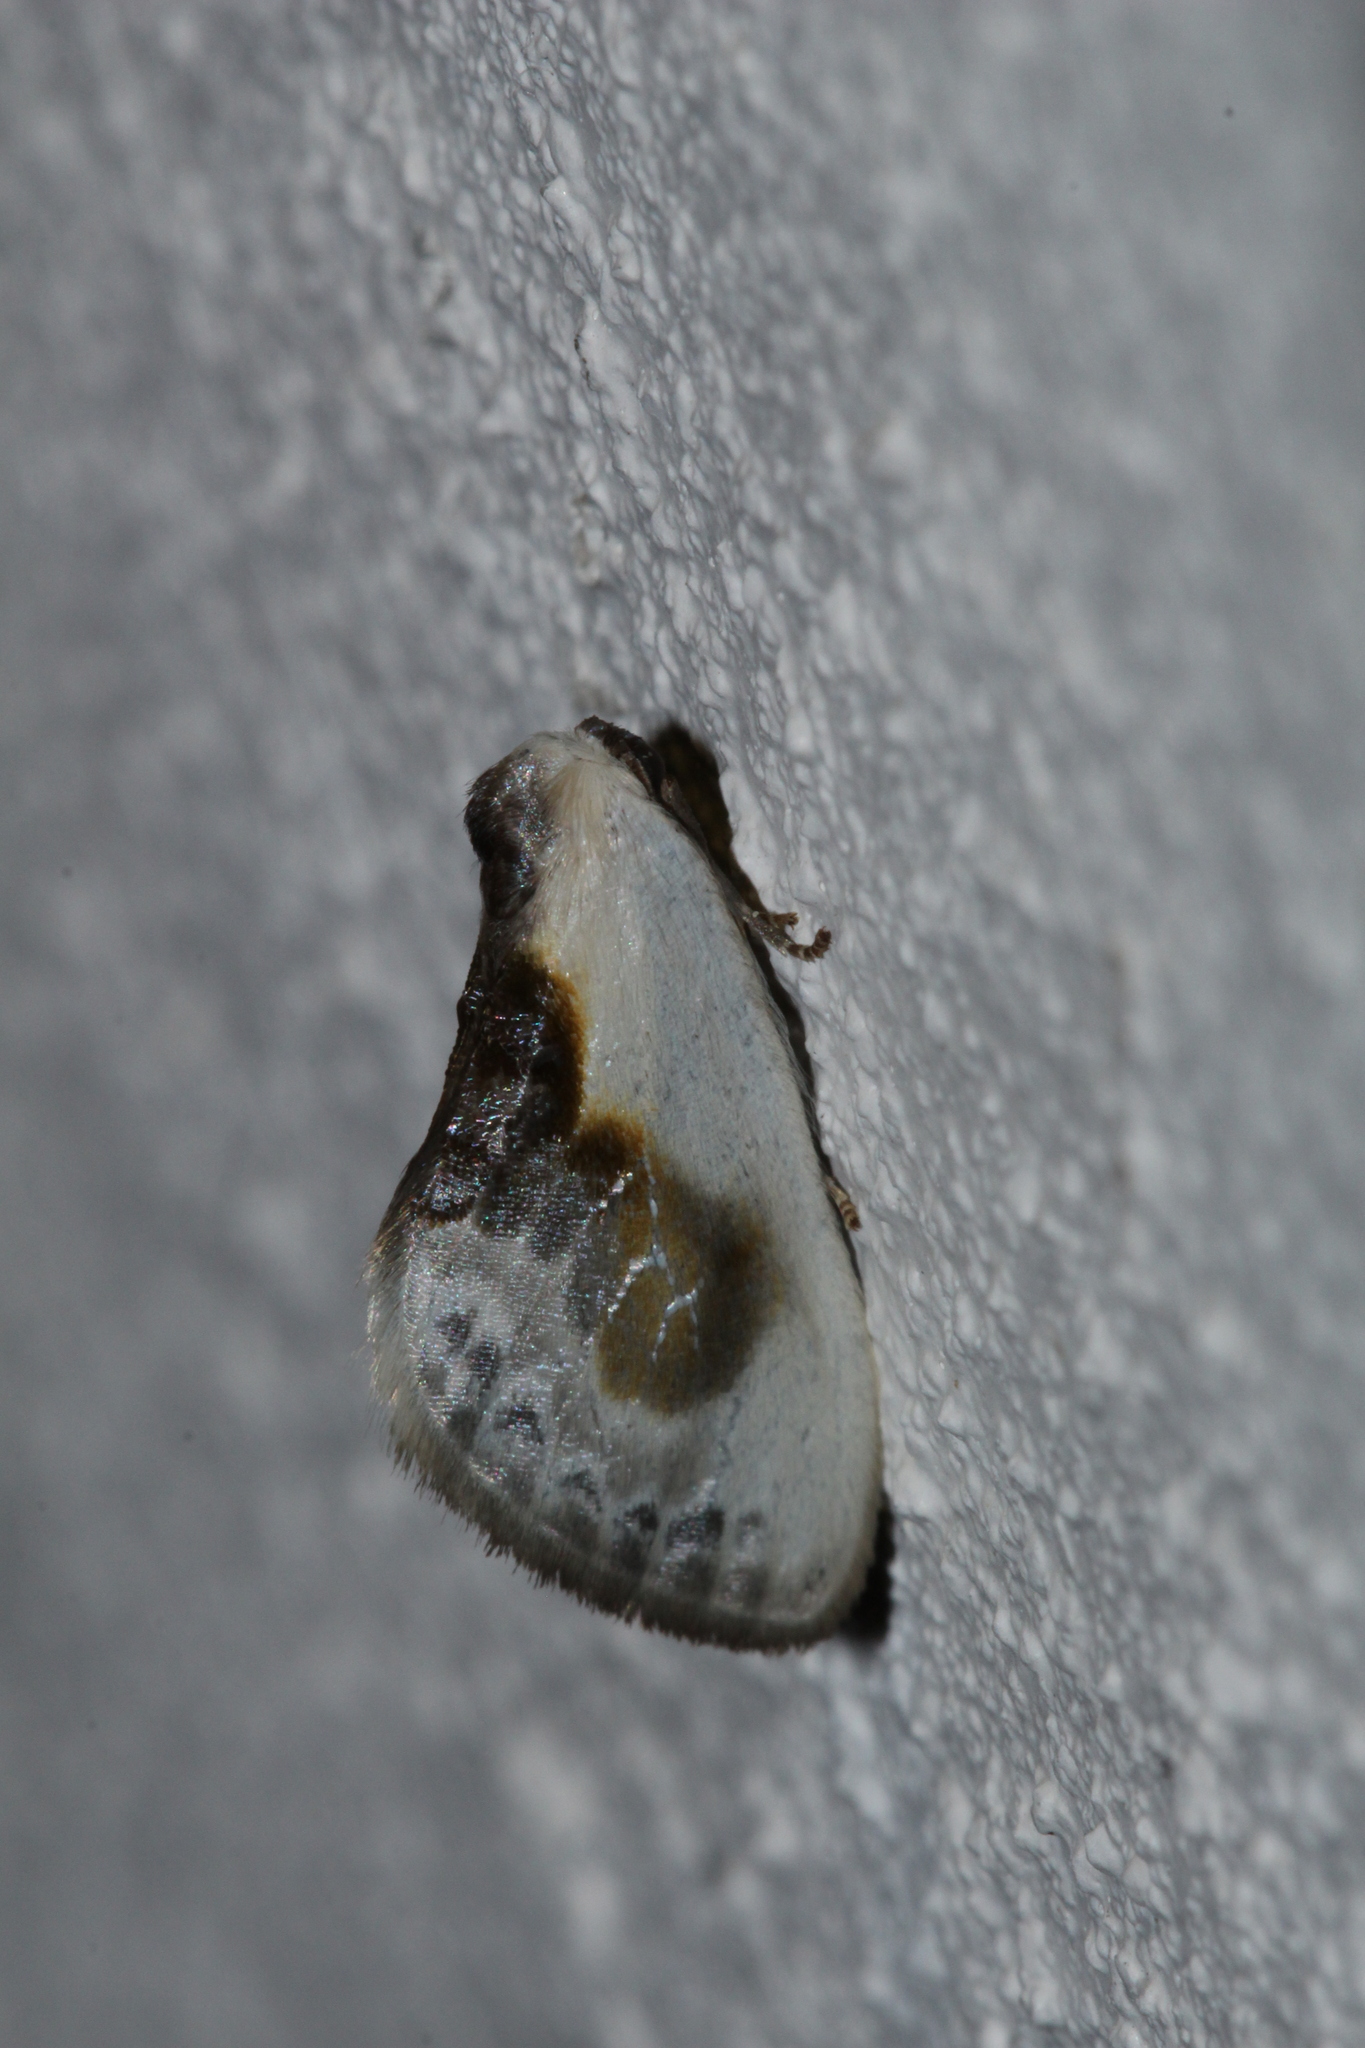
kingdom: Animalia
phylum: Arthropoda
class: Insecta
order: Lepidoptera
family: Drepanidae
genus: Cilix
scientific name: Cilix glaucata
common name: Chinese character
